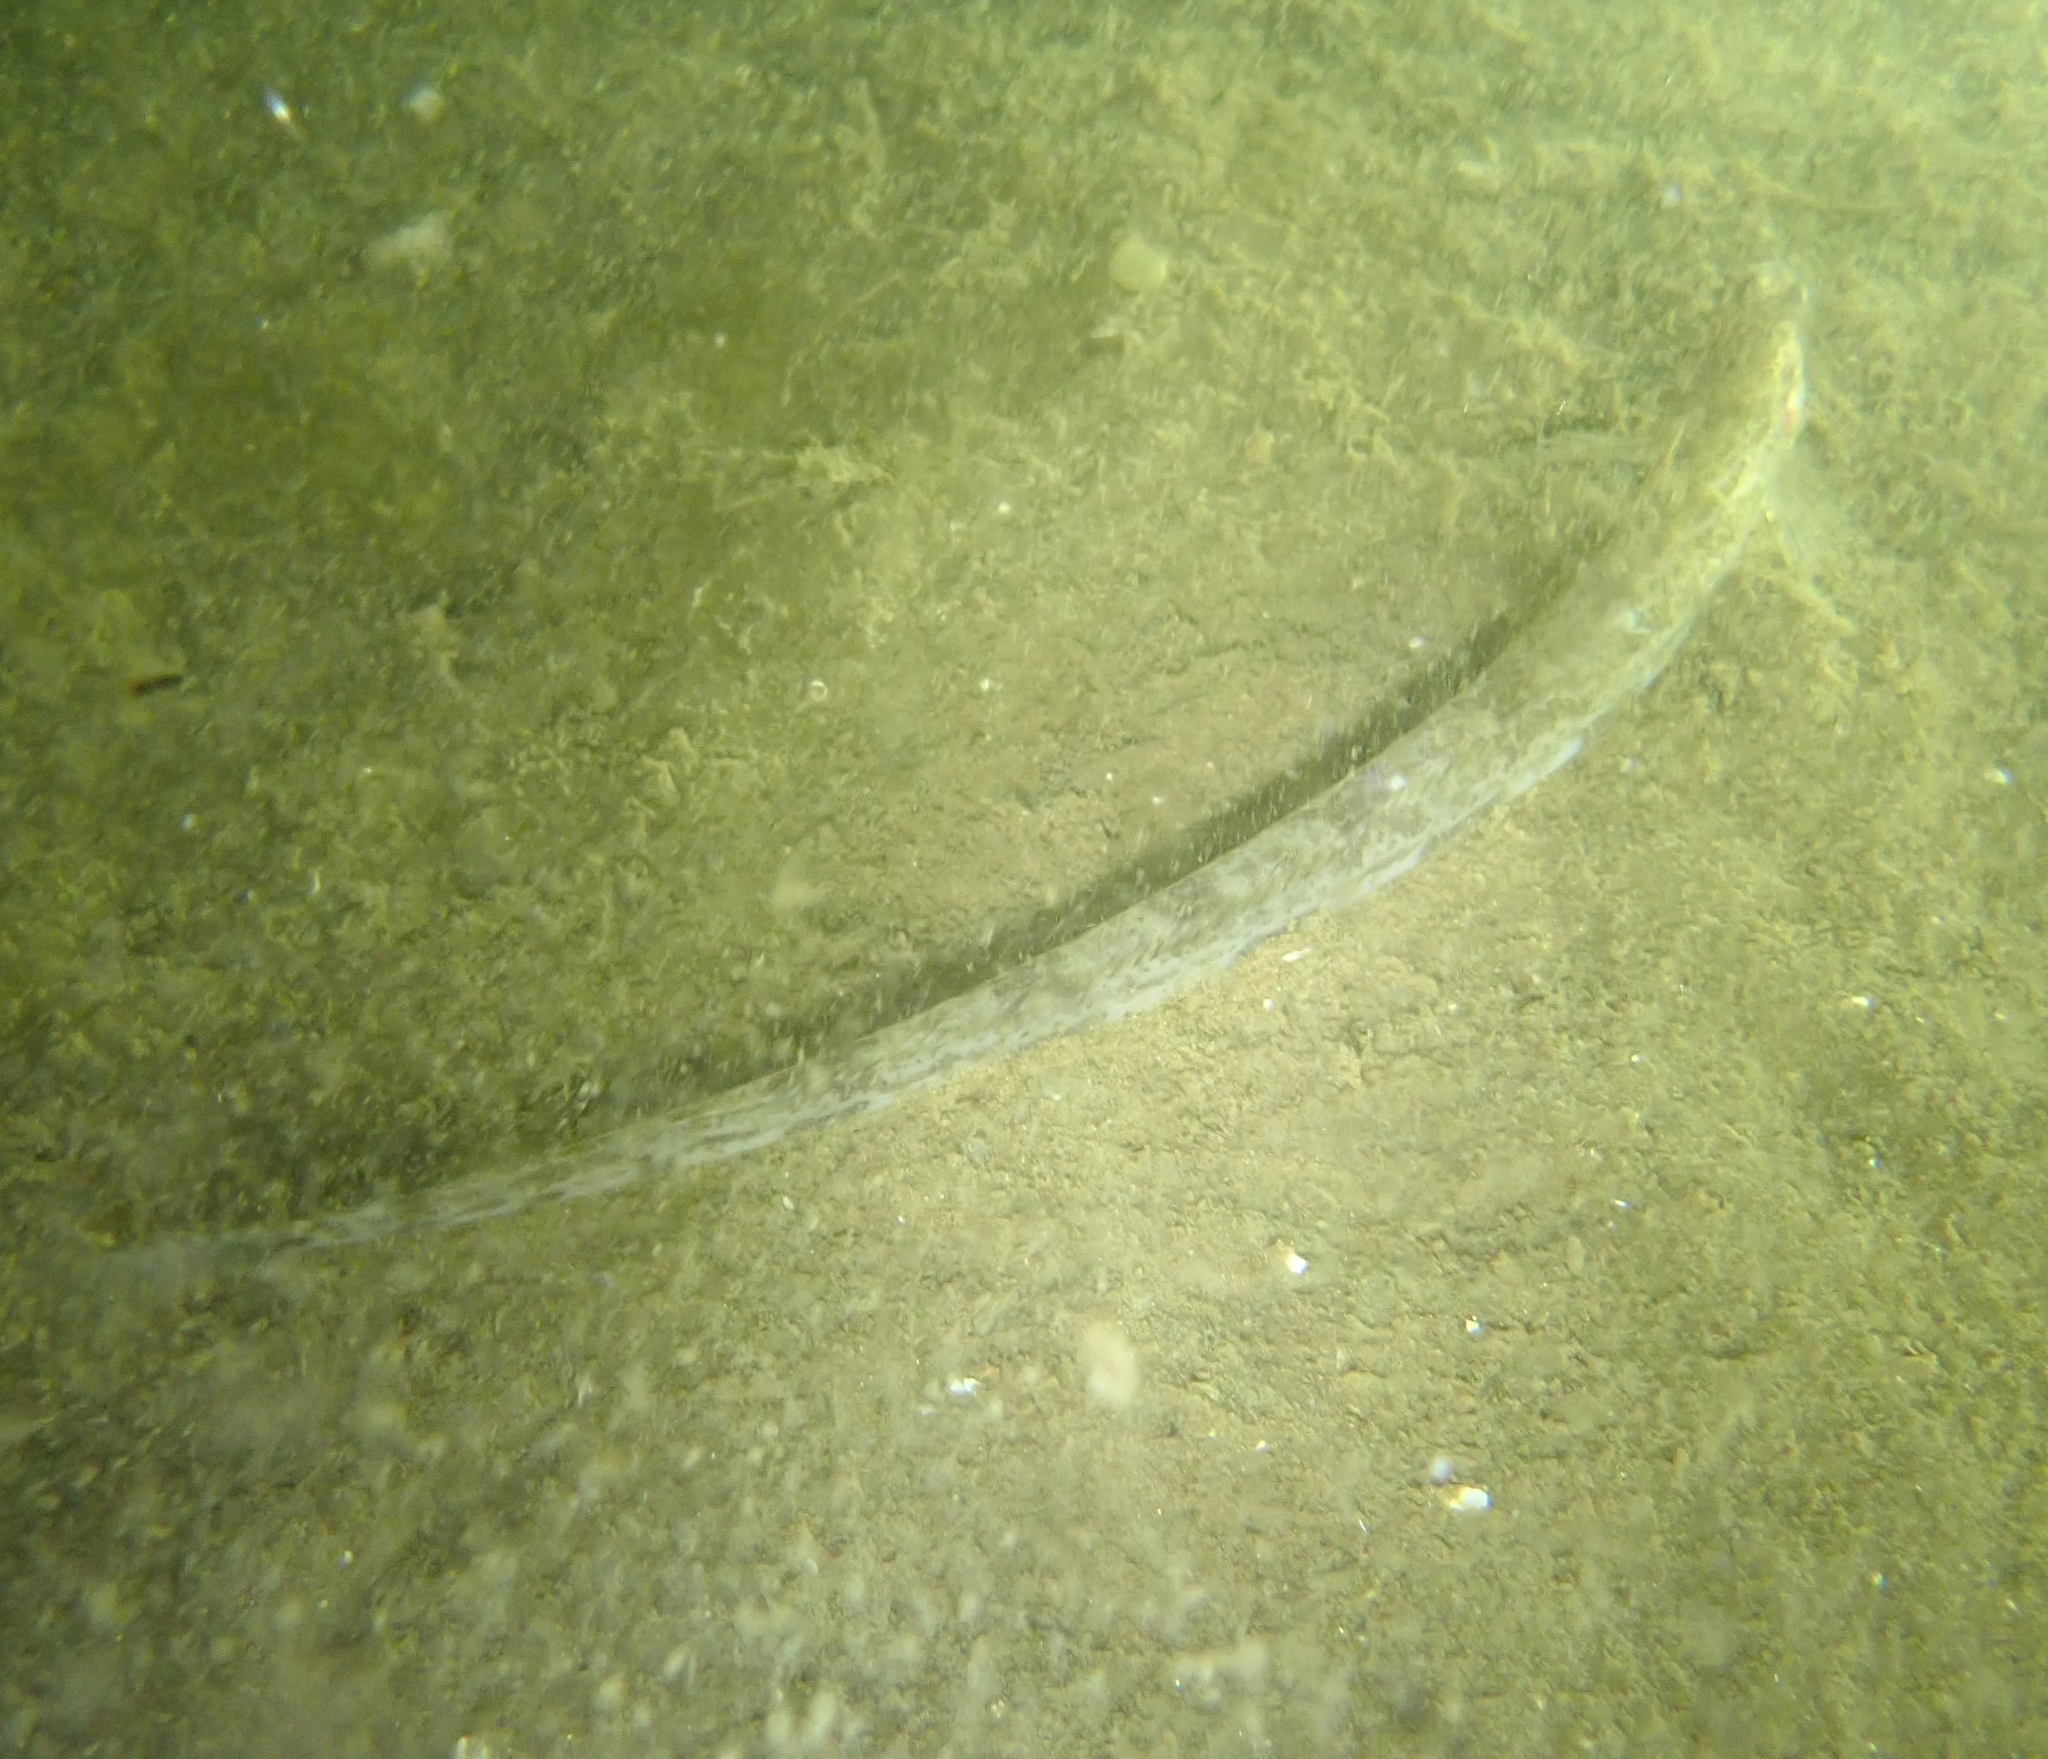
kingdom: Animalia
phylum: Chordata
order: Perciformes
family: Stichaeidae
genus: Lumpenus
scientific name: Lumpenus lampretaeformis
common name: Snake blenny
